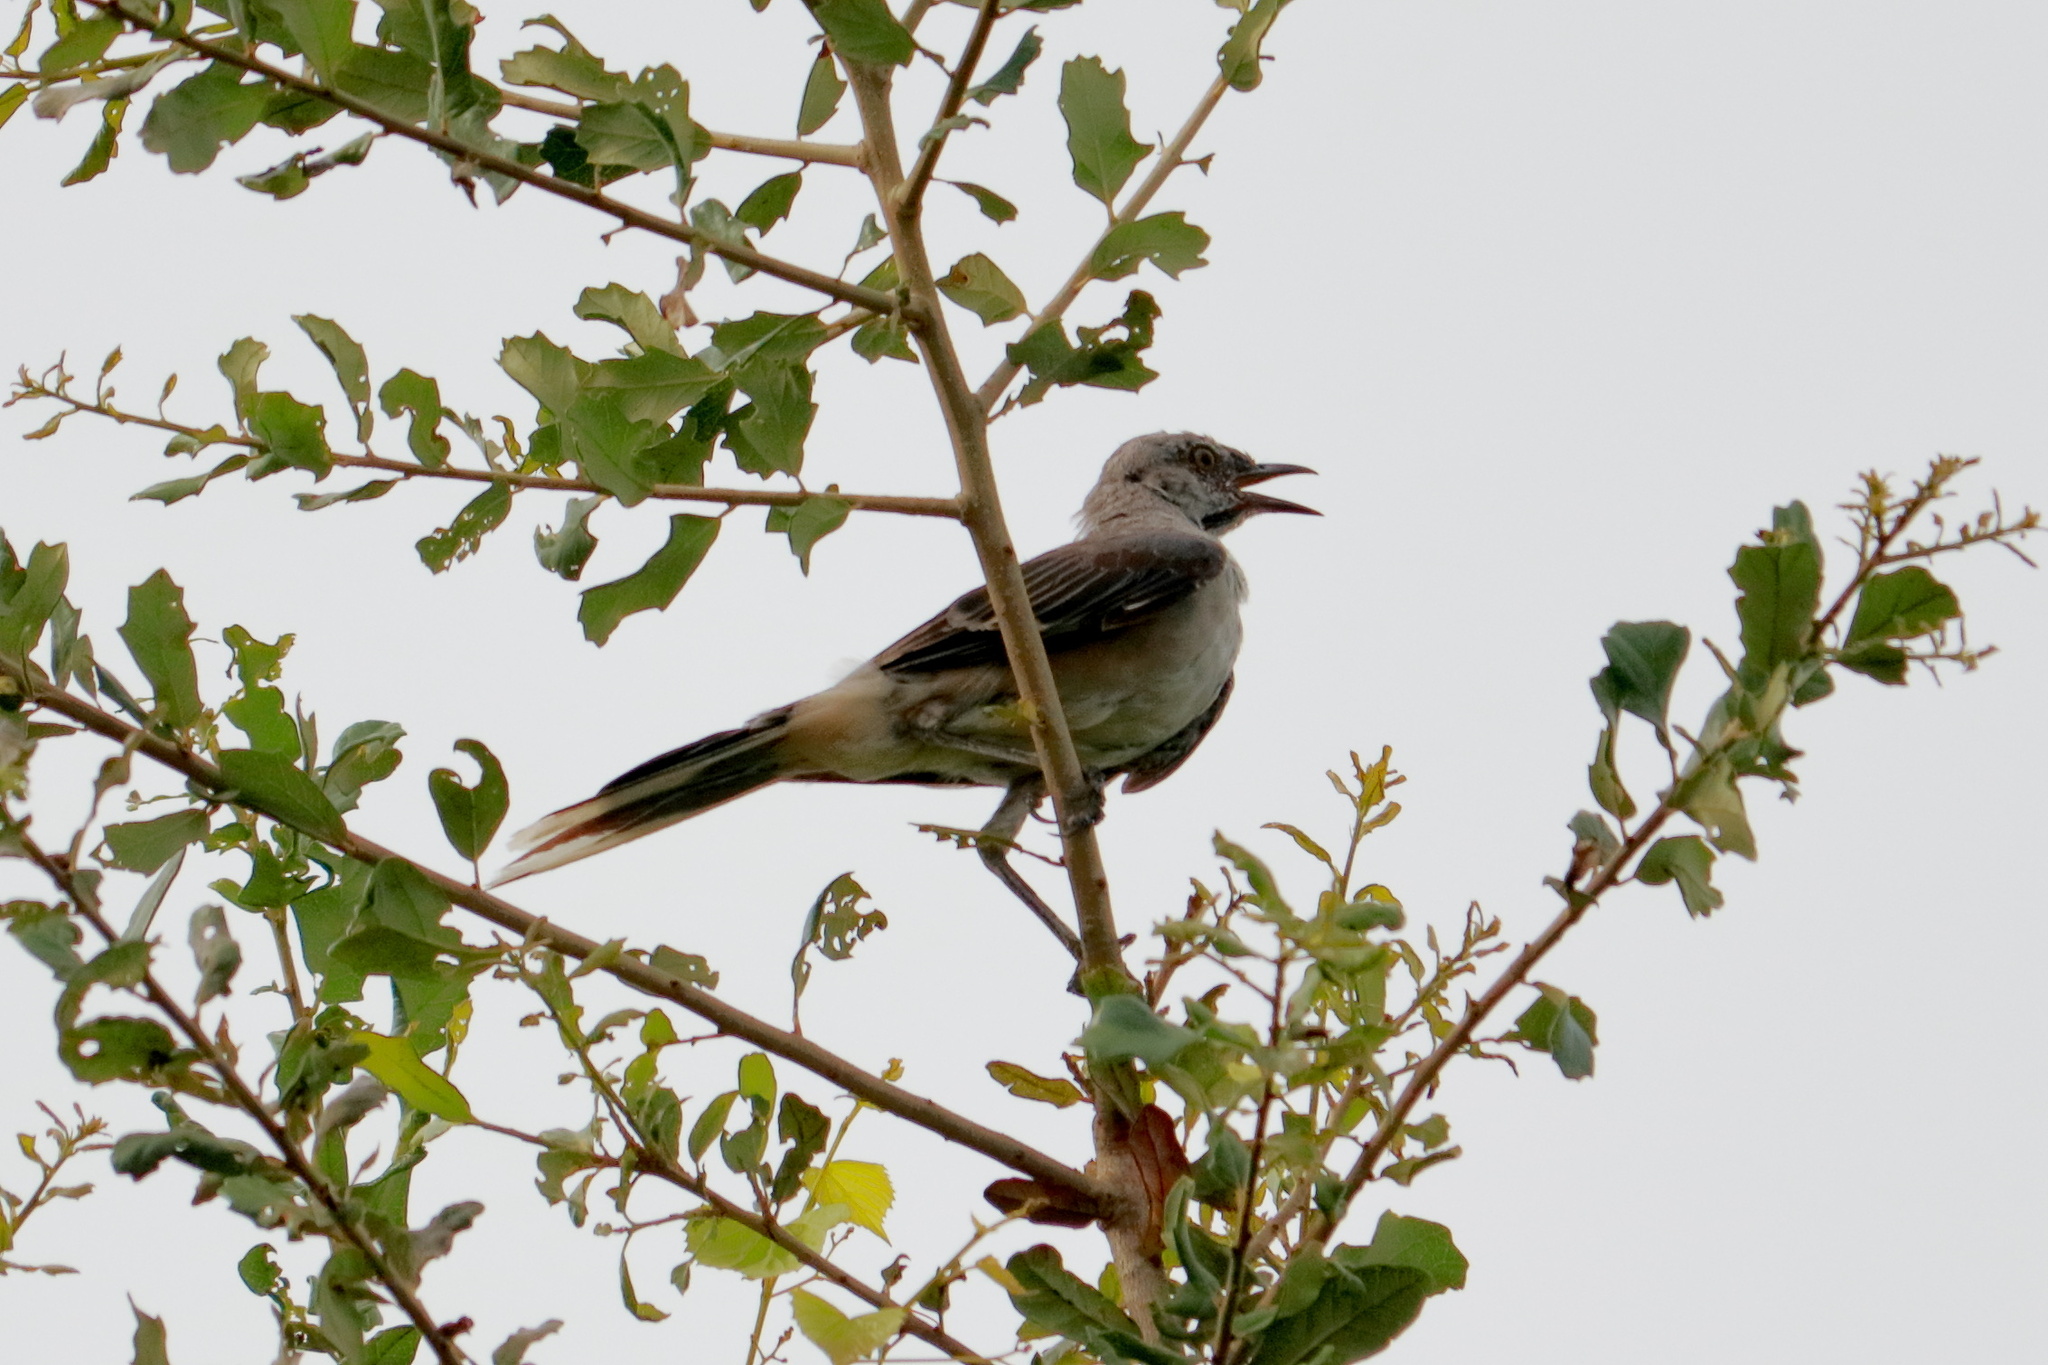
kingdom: Animalia
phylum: Chordata
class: Aves
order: Passeriformes
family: Mimidae
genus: Mimus
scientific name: Mimus polyglottos
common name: Northern mockingbird
